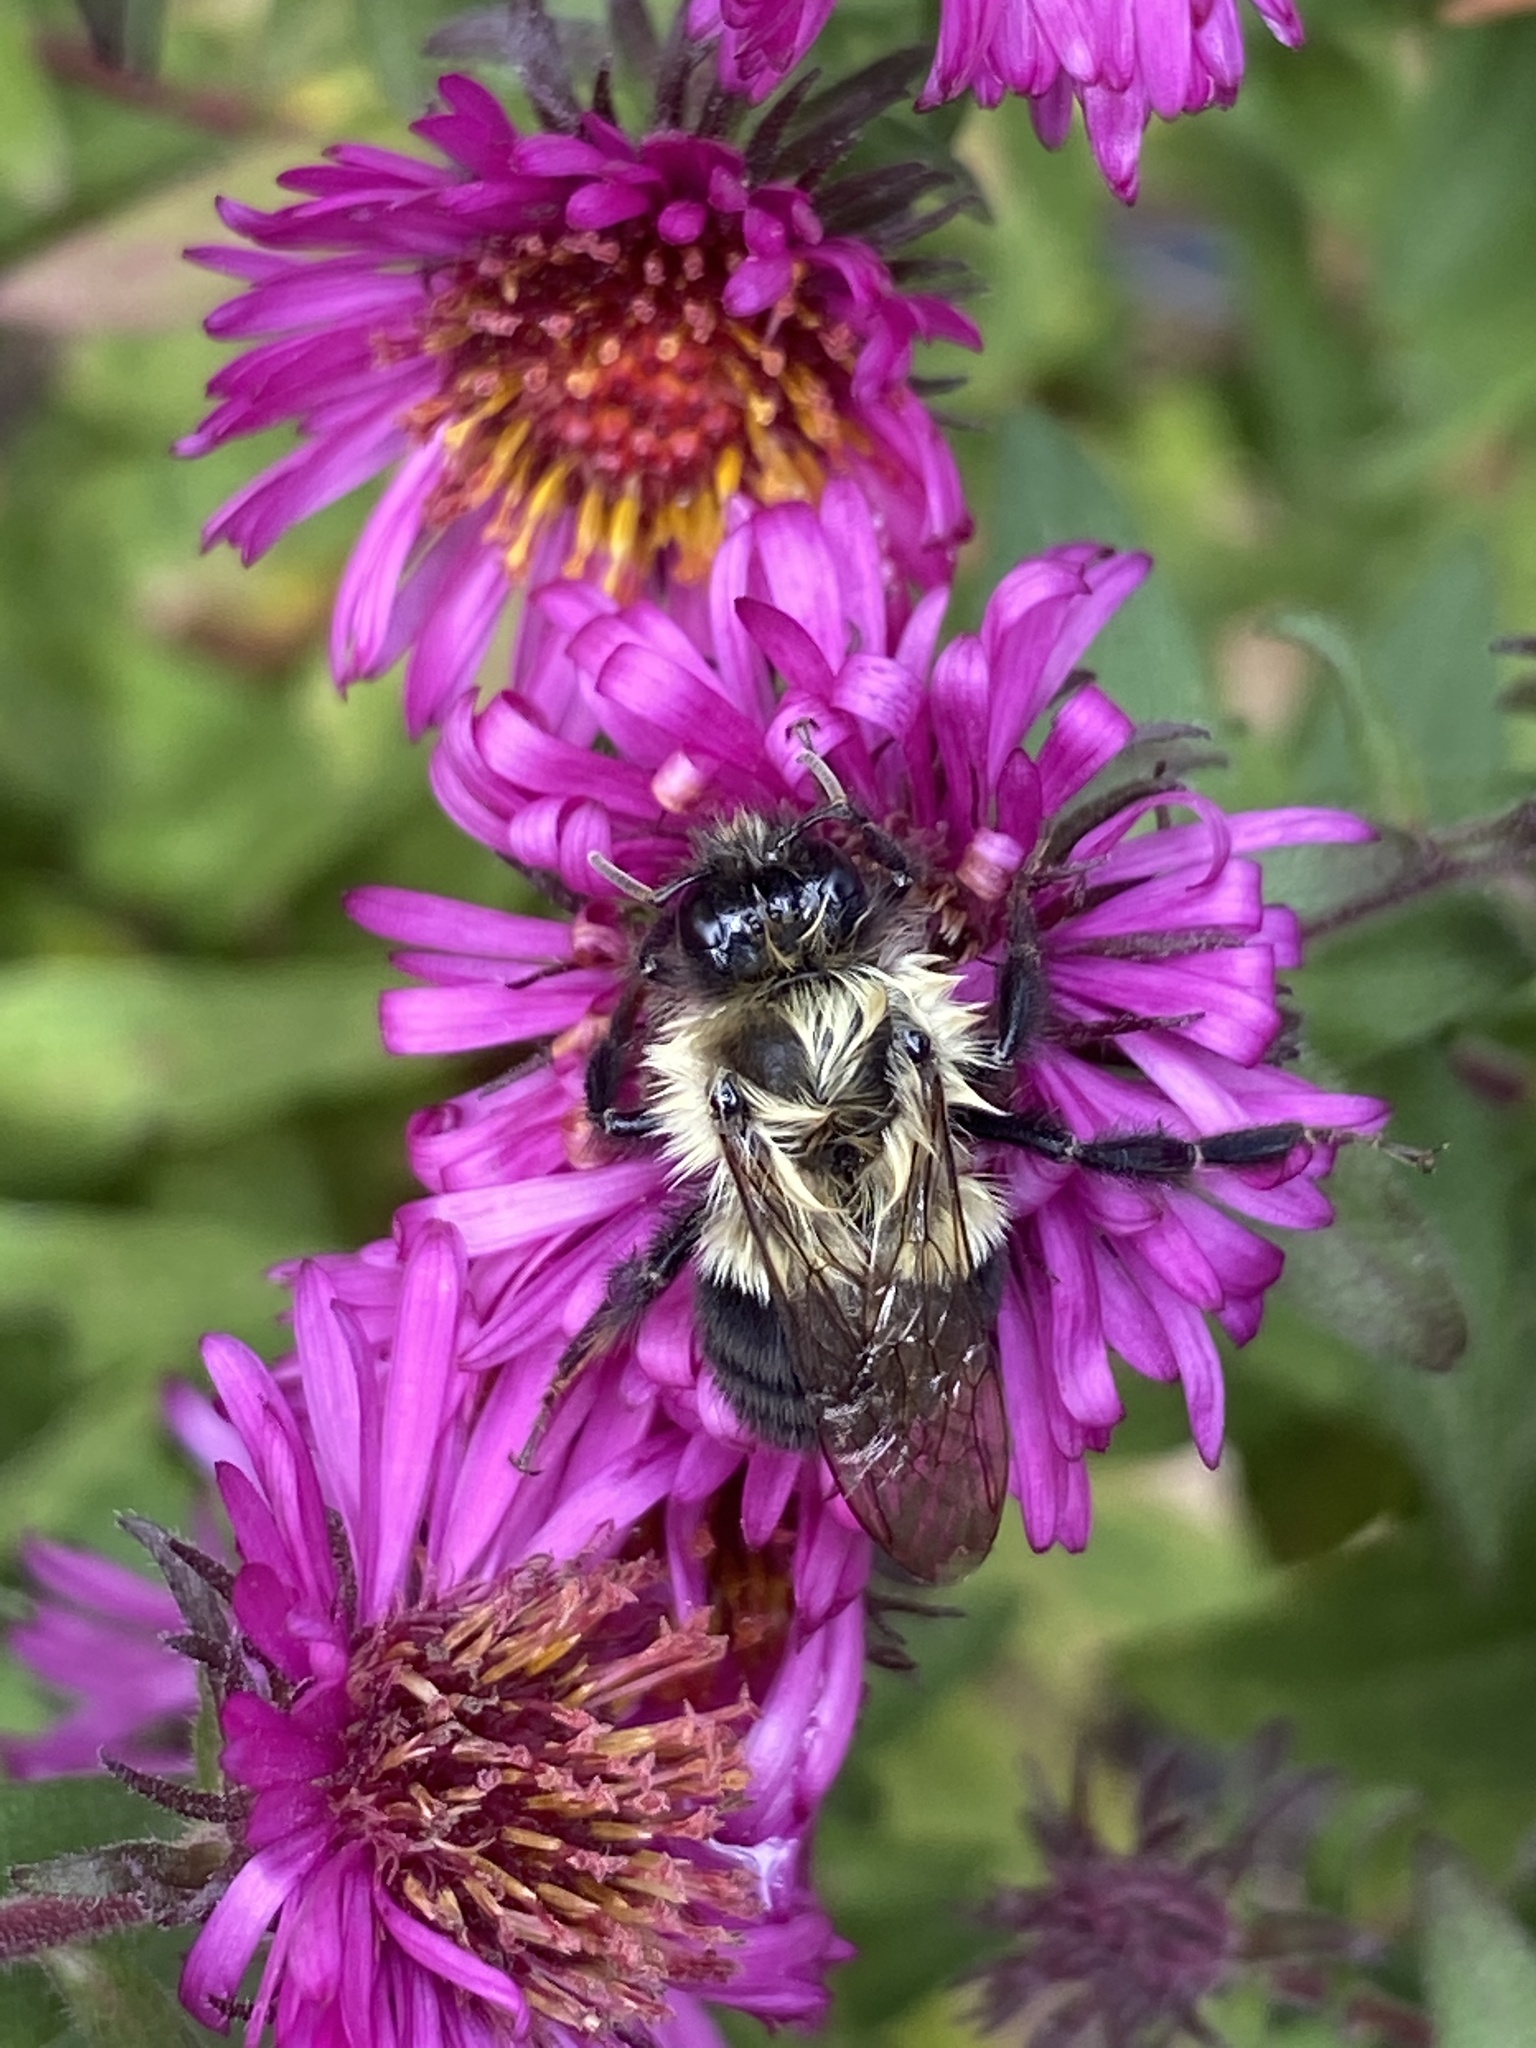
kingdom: Animalia
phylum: Arthropoda
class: Insecta
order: Hymenoptera
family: Apidae
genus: Bombus
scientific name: Bombus impatiens
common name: Common eastern bumble bee
